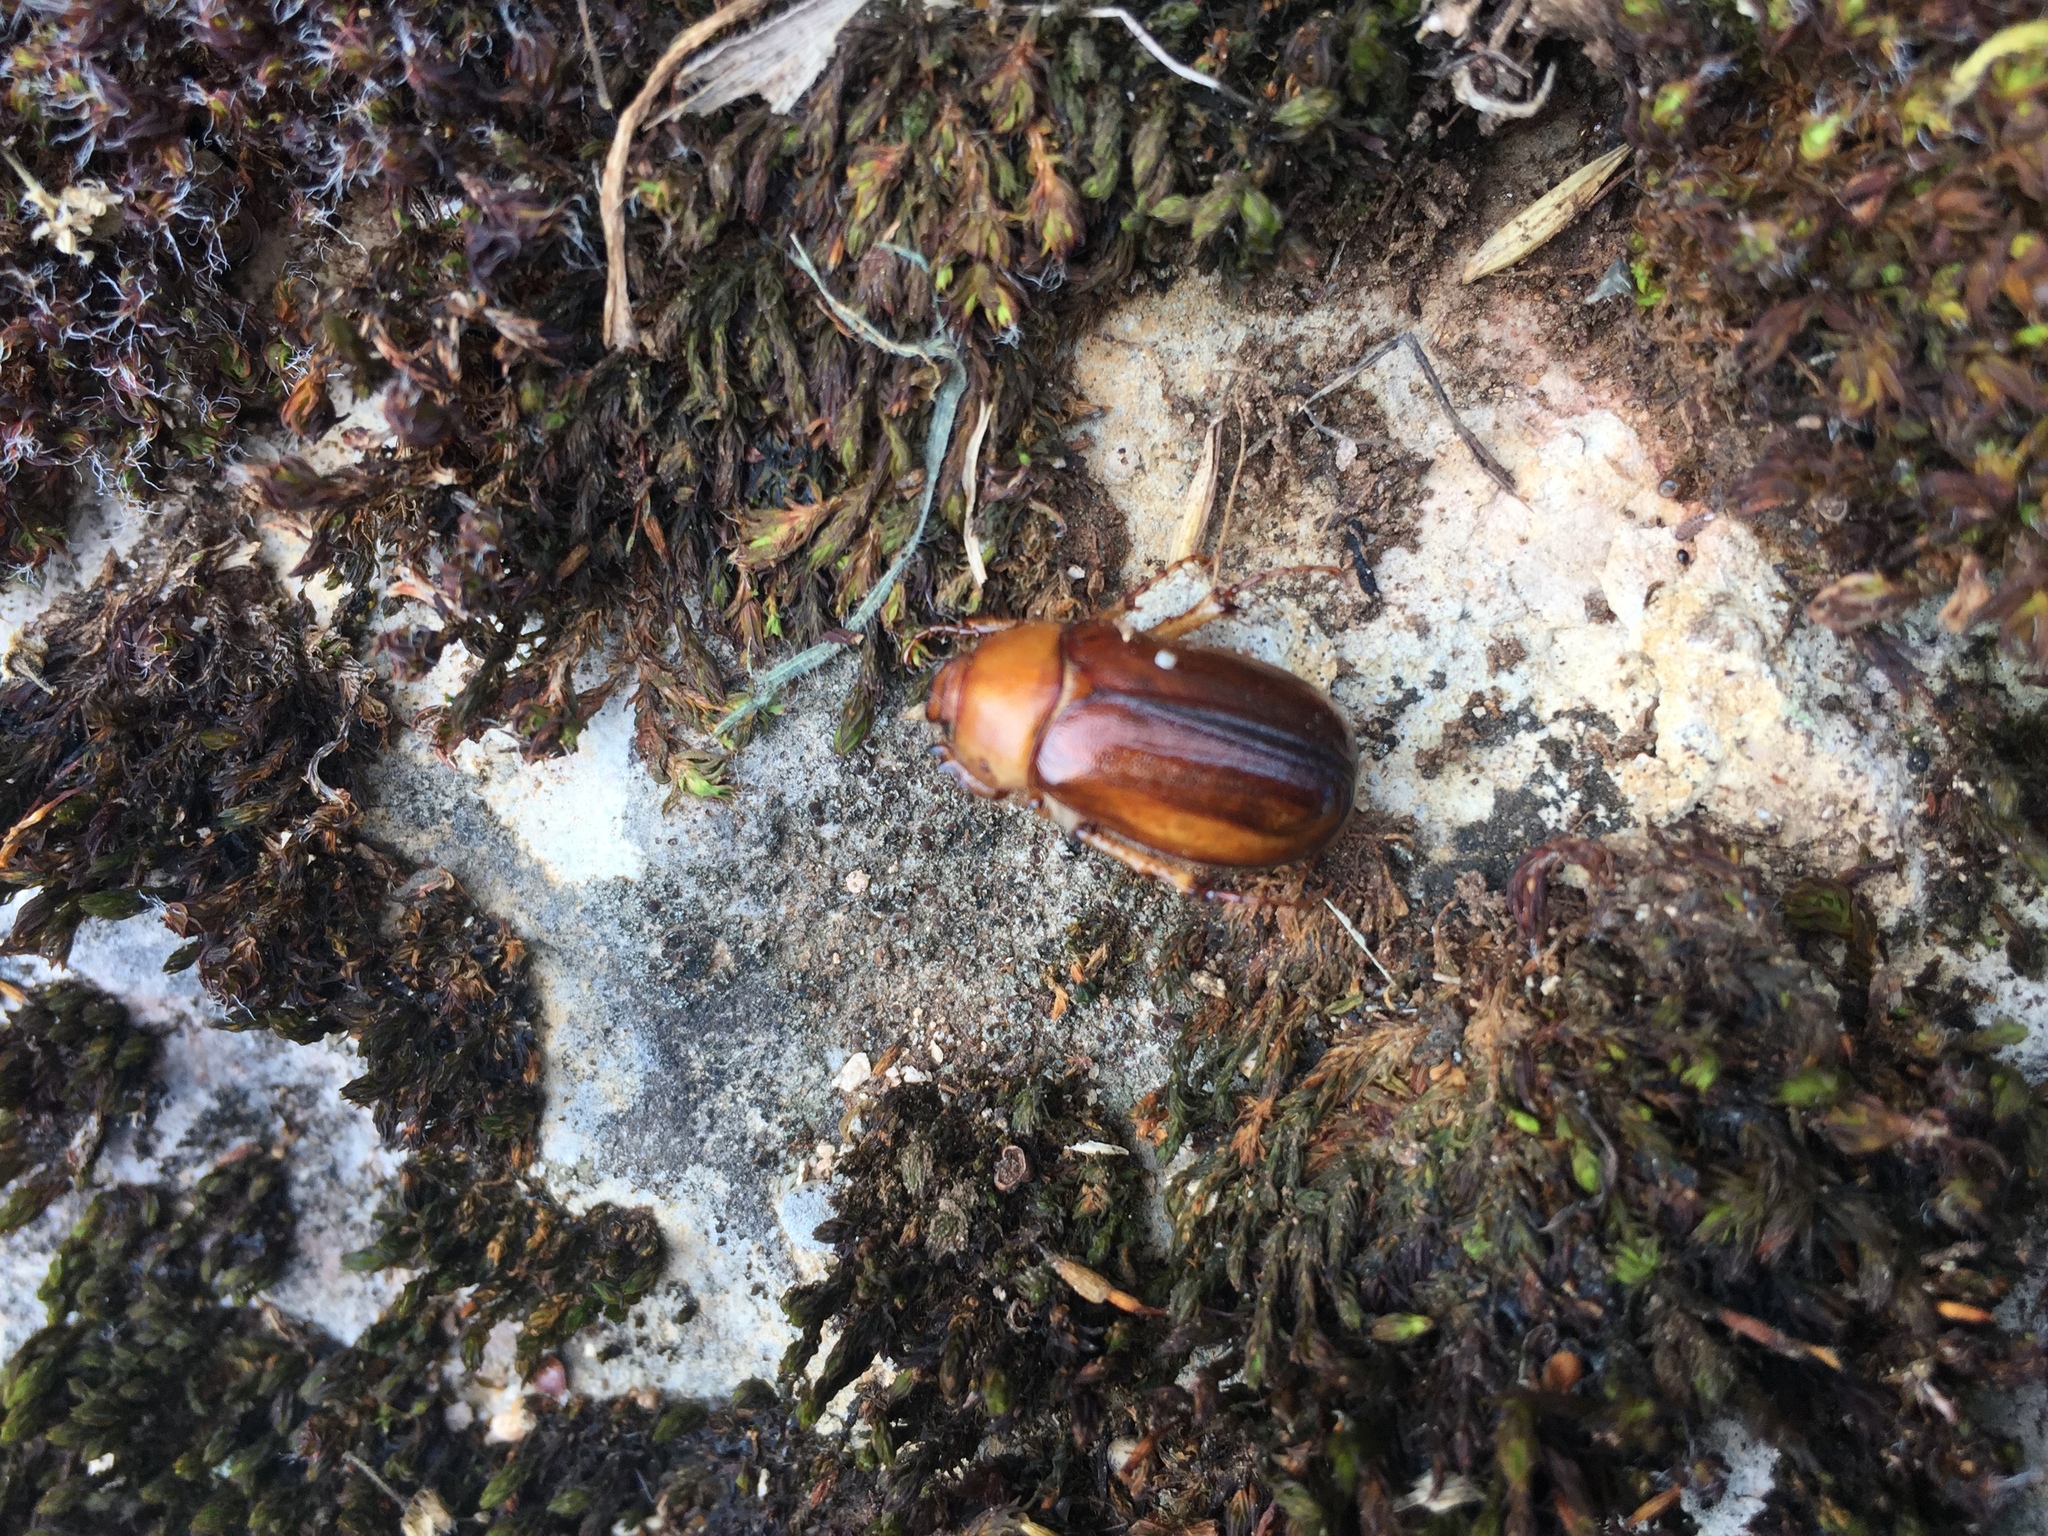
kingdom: Animalia
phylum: Arthropoda
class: Insecta
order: Coleoptera
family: Scarabaeidae
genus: Rhizotrogus
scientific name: Rhizotrogus aestivus
